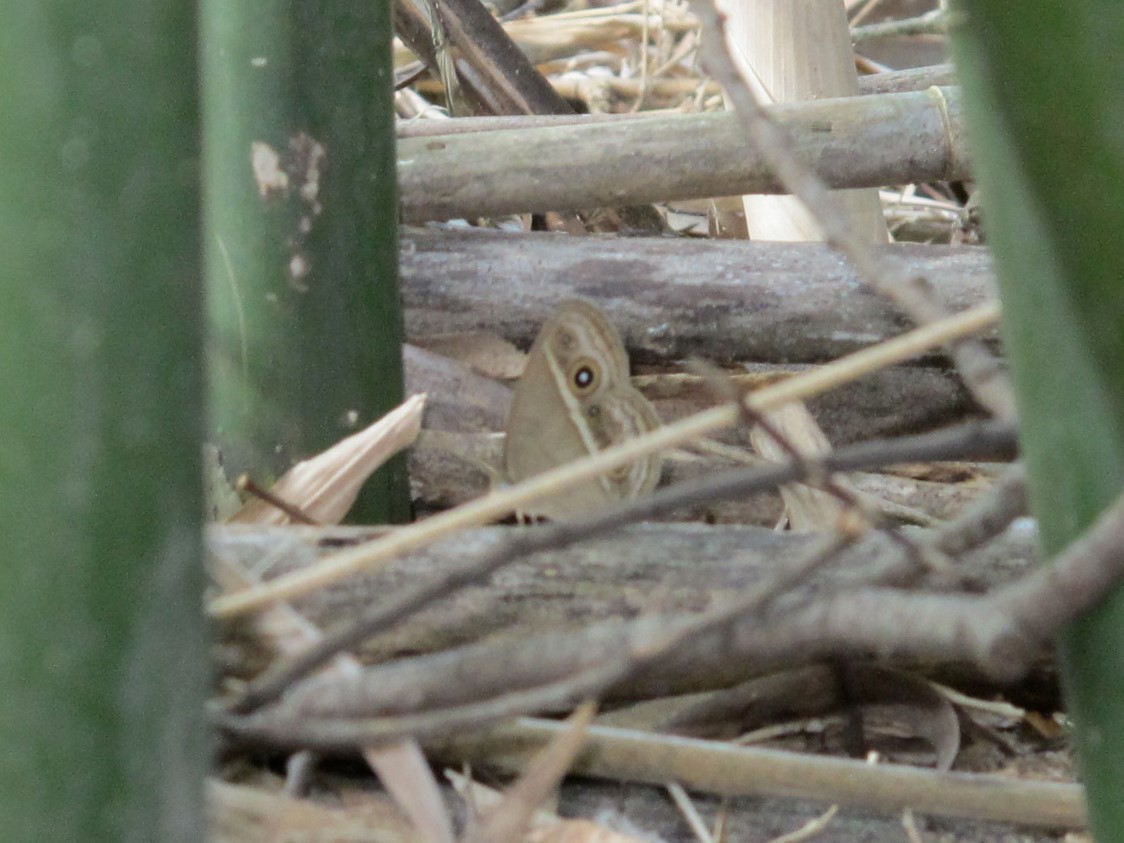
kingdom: Animalia
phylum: Arthropoda
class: Insecta
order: Lepidoptera
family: Nymphalidae
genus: Mycalesis
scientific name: Mycalesis gotama
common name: Chinese bushbrown
